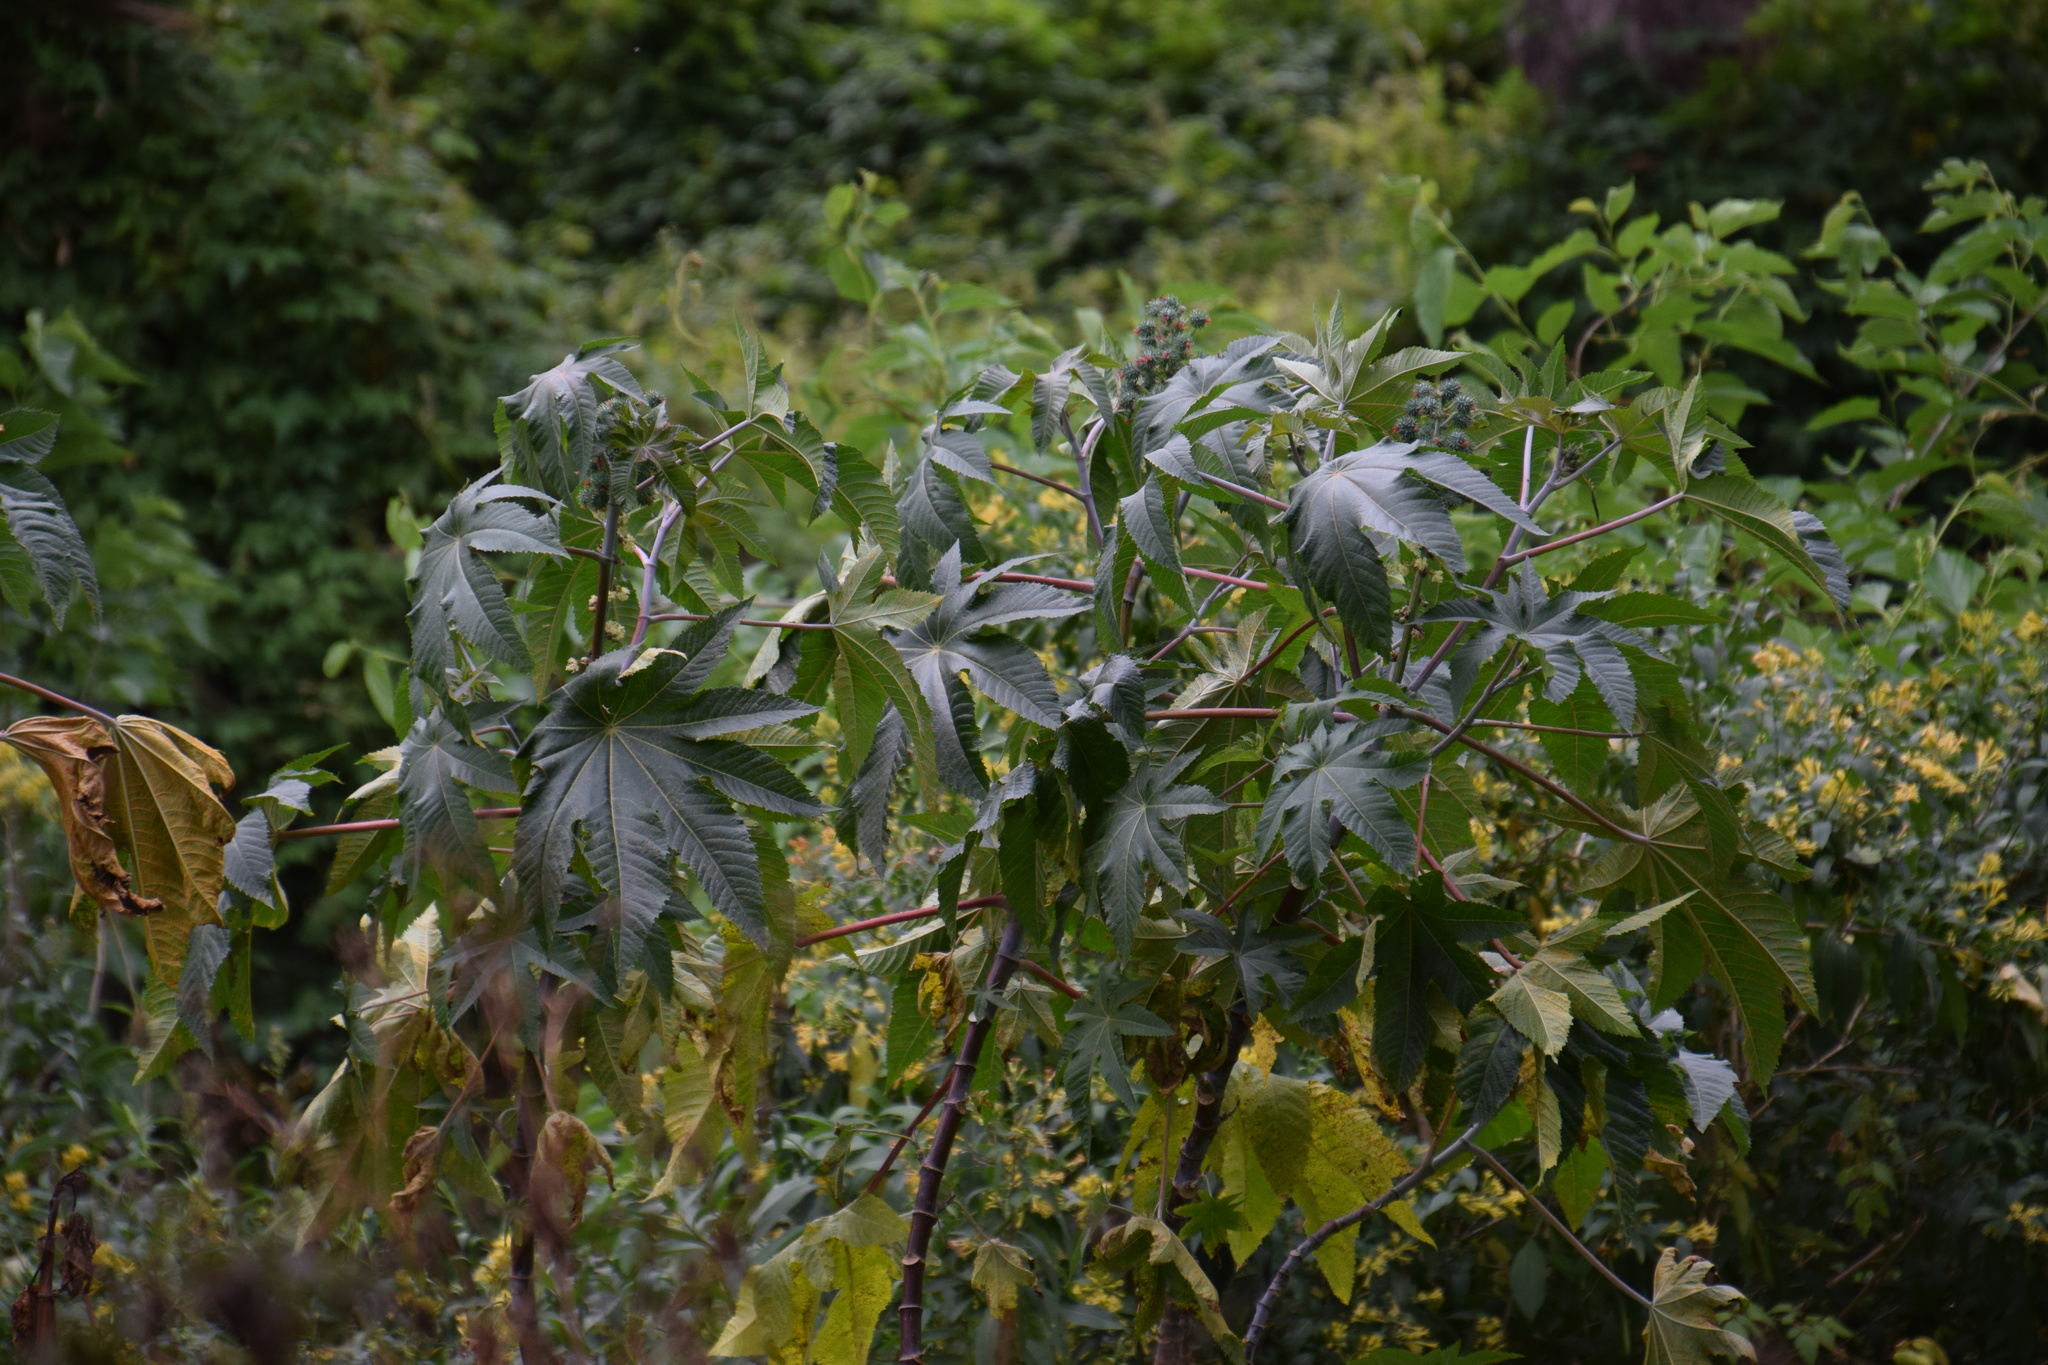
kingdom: Plantae
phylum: Tracheophyta
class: Magnoliopsida
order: Malpighiales
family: Euphorbiaceae
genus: Ricinus
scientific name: Ricinus communis
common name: Castor-oil-plant
